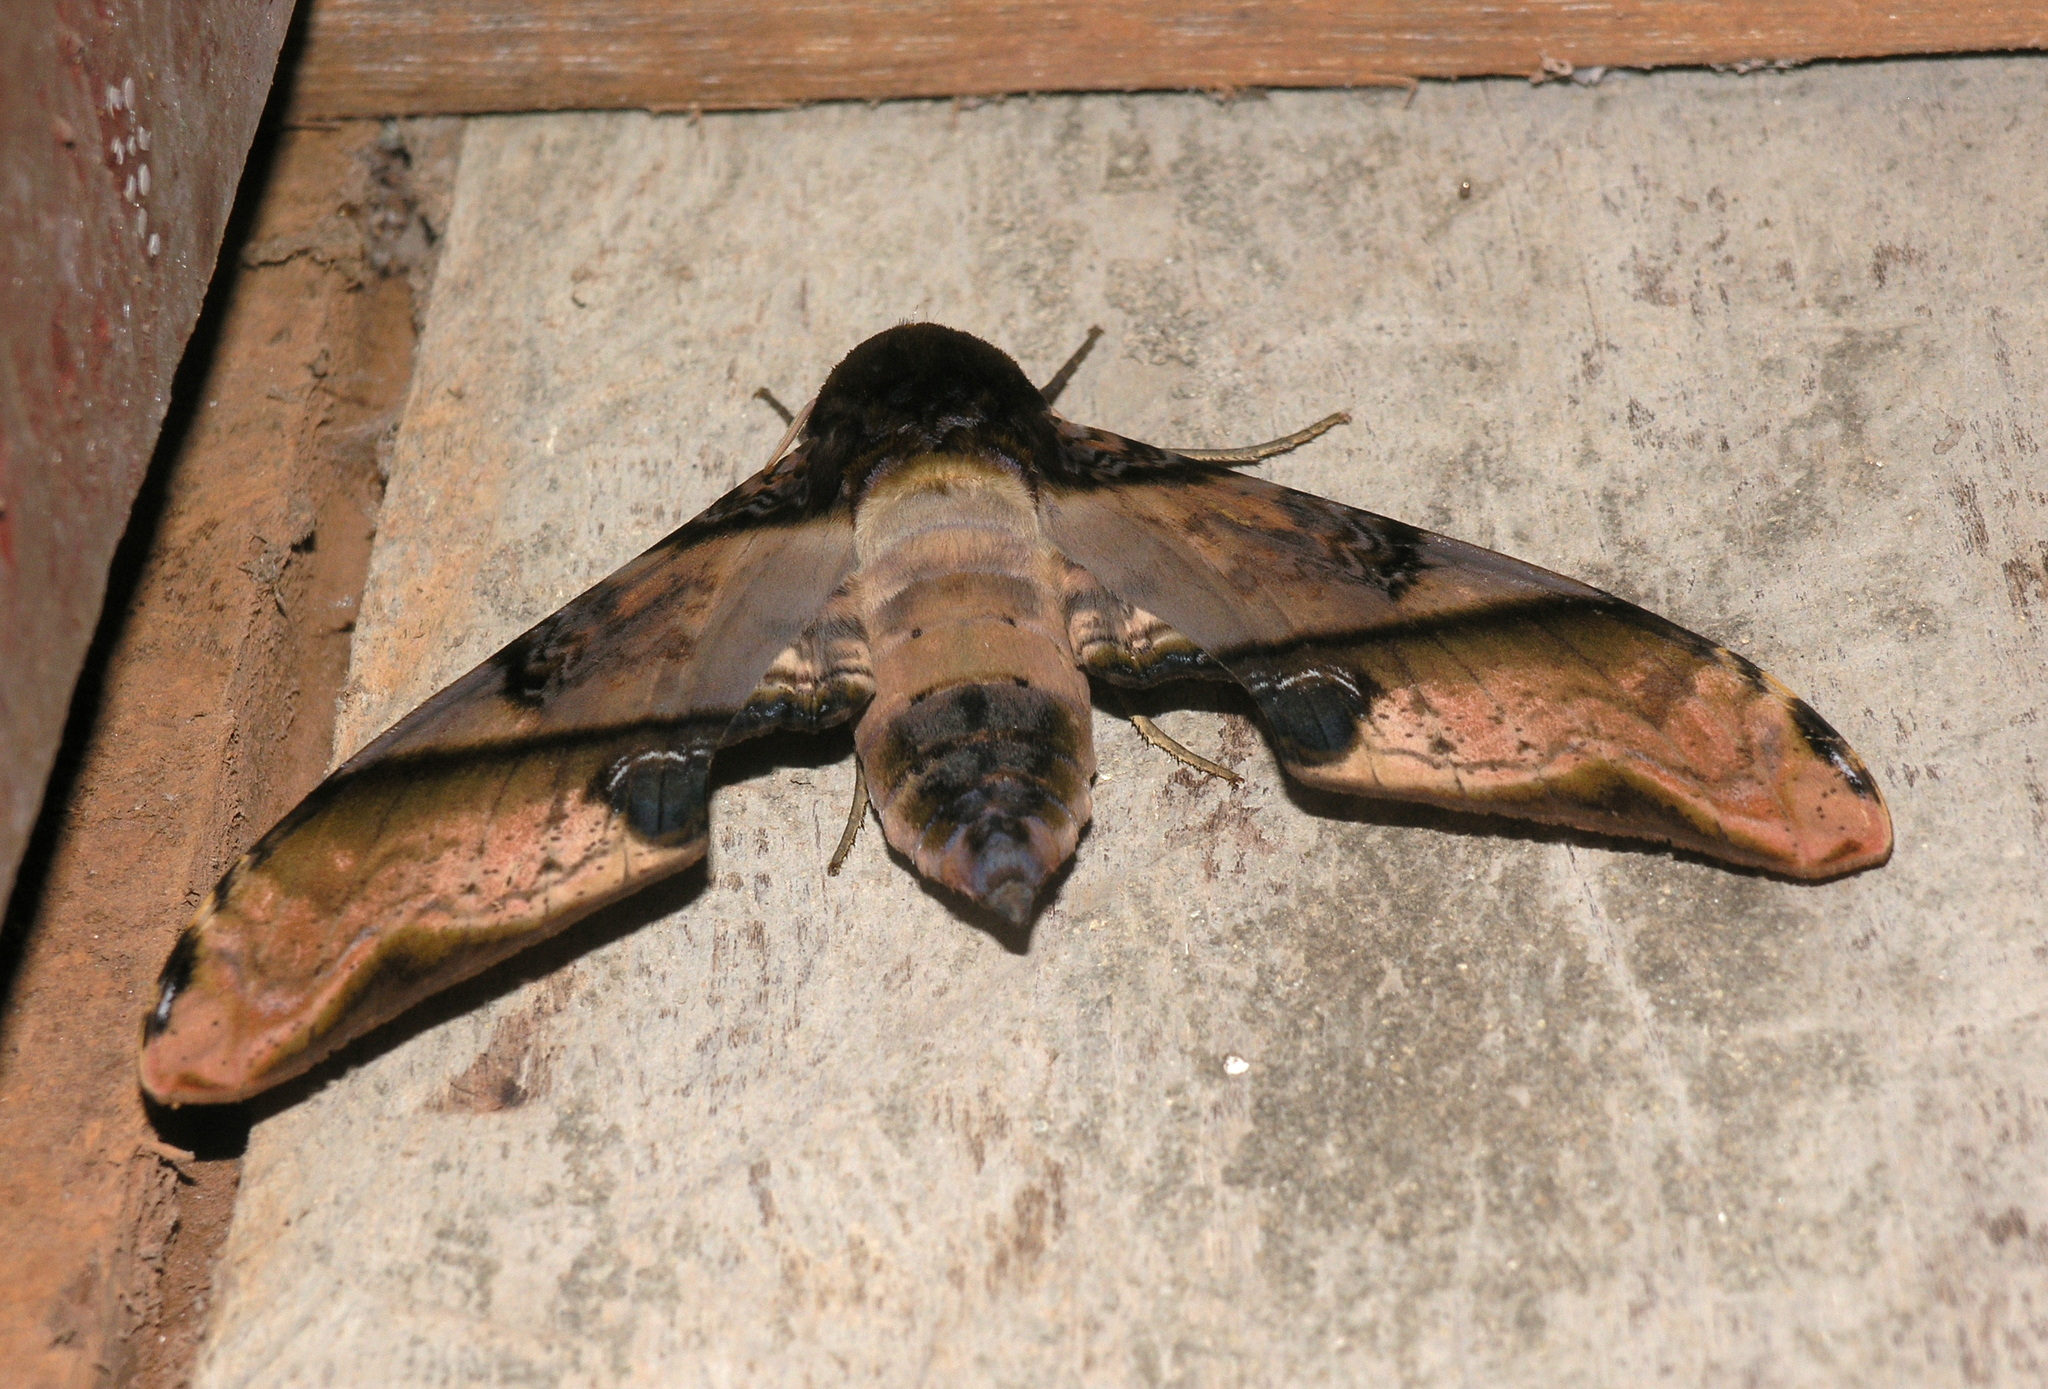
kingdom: Animalia
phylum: Arthropoda
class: Insecta
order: Lepidoptera
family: Sphingidae
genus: Amplypterus
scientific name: Amplypterus panopus
